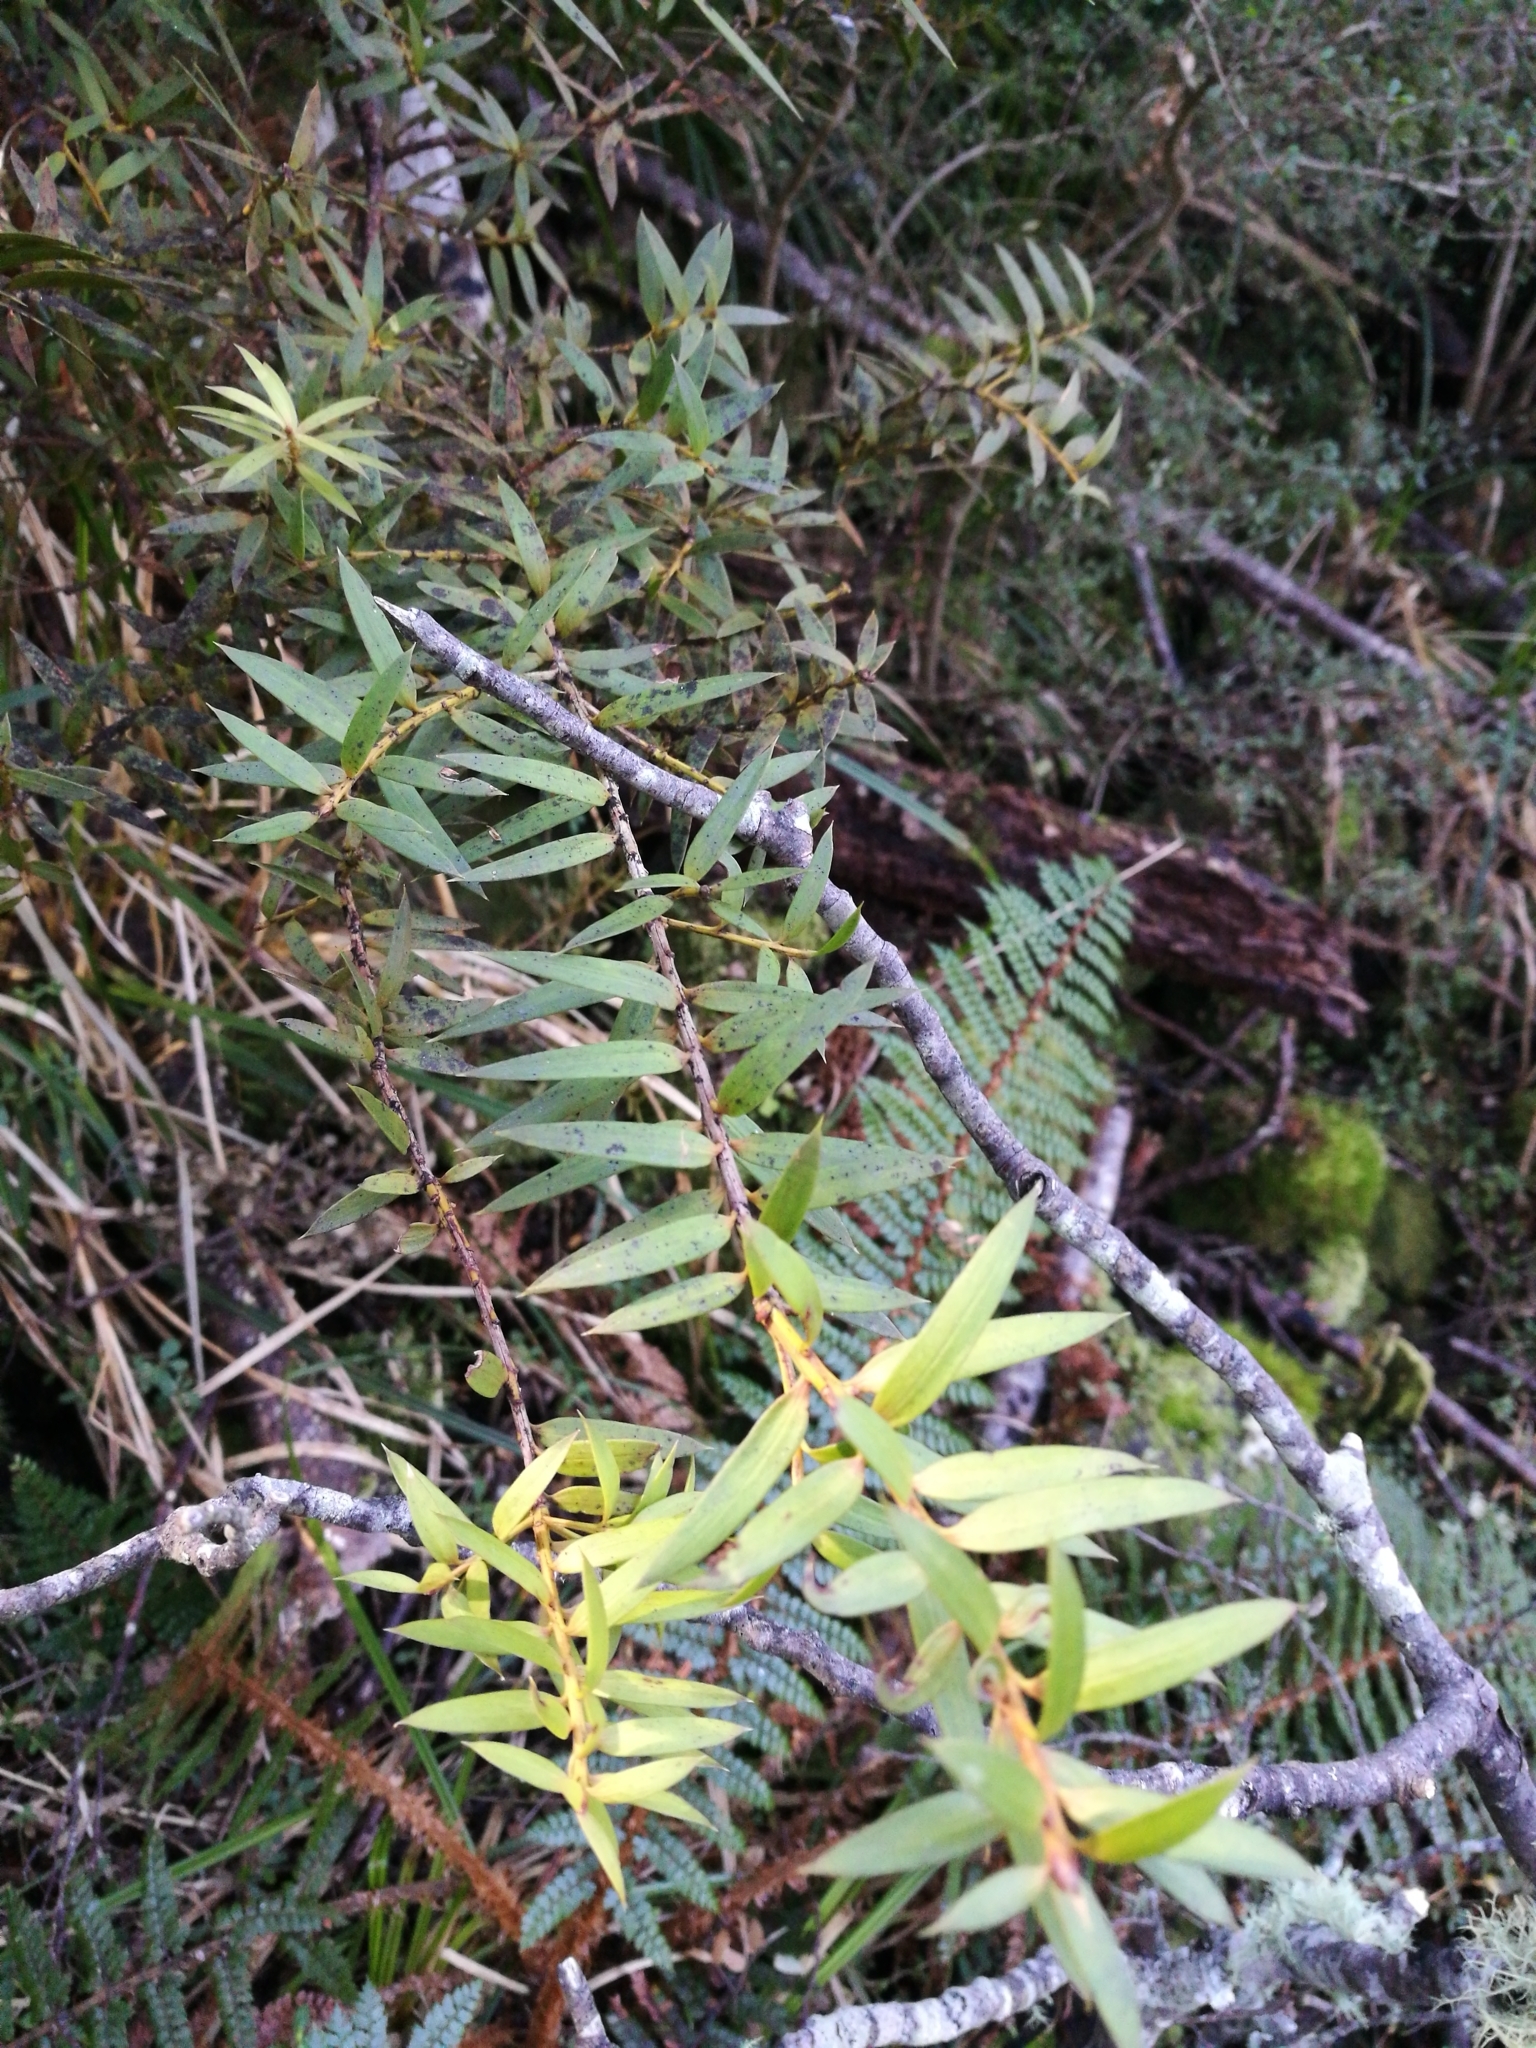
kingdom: Plantae
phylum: Tracheophyta
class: Pinopsida
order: Pinales
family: Podocarpaceae
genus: Podocarpus
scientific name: Podocarpus laetus
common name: Hall's totara
